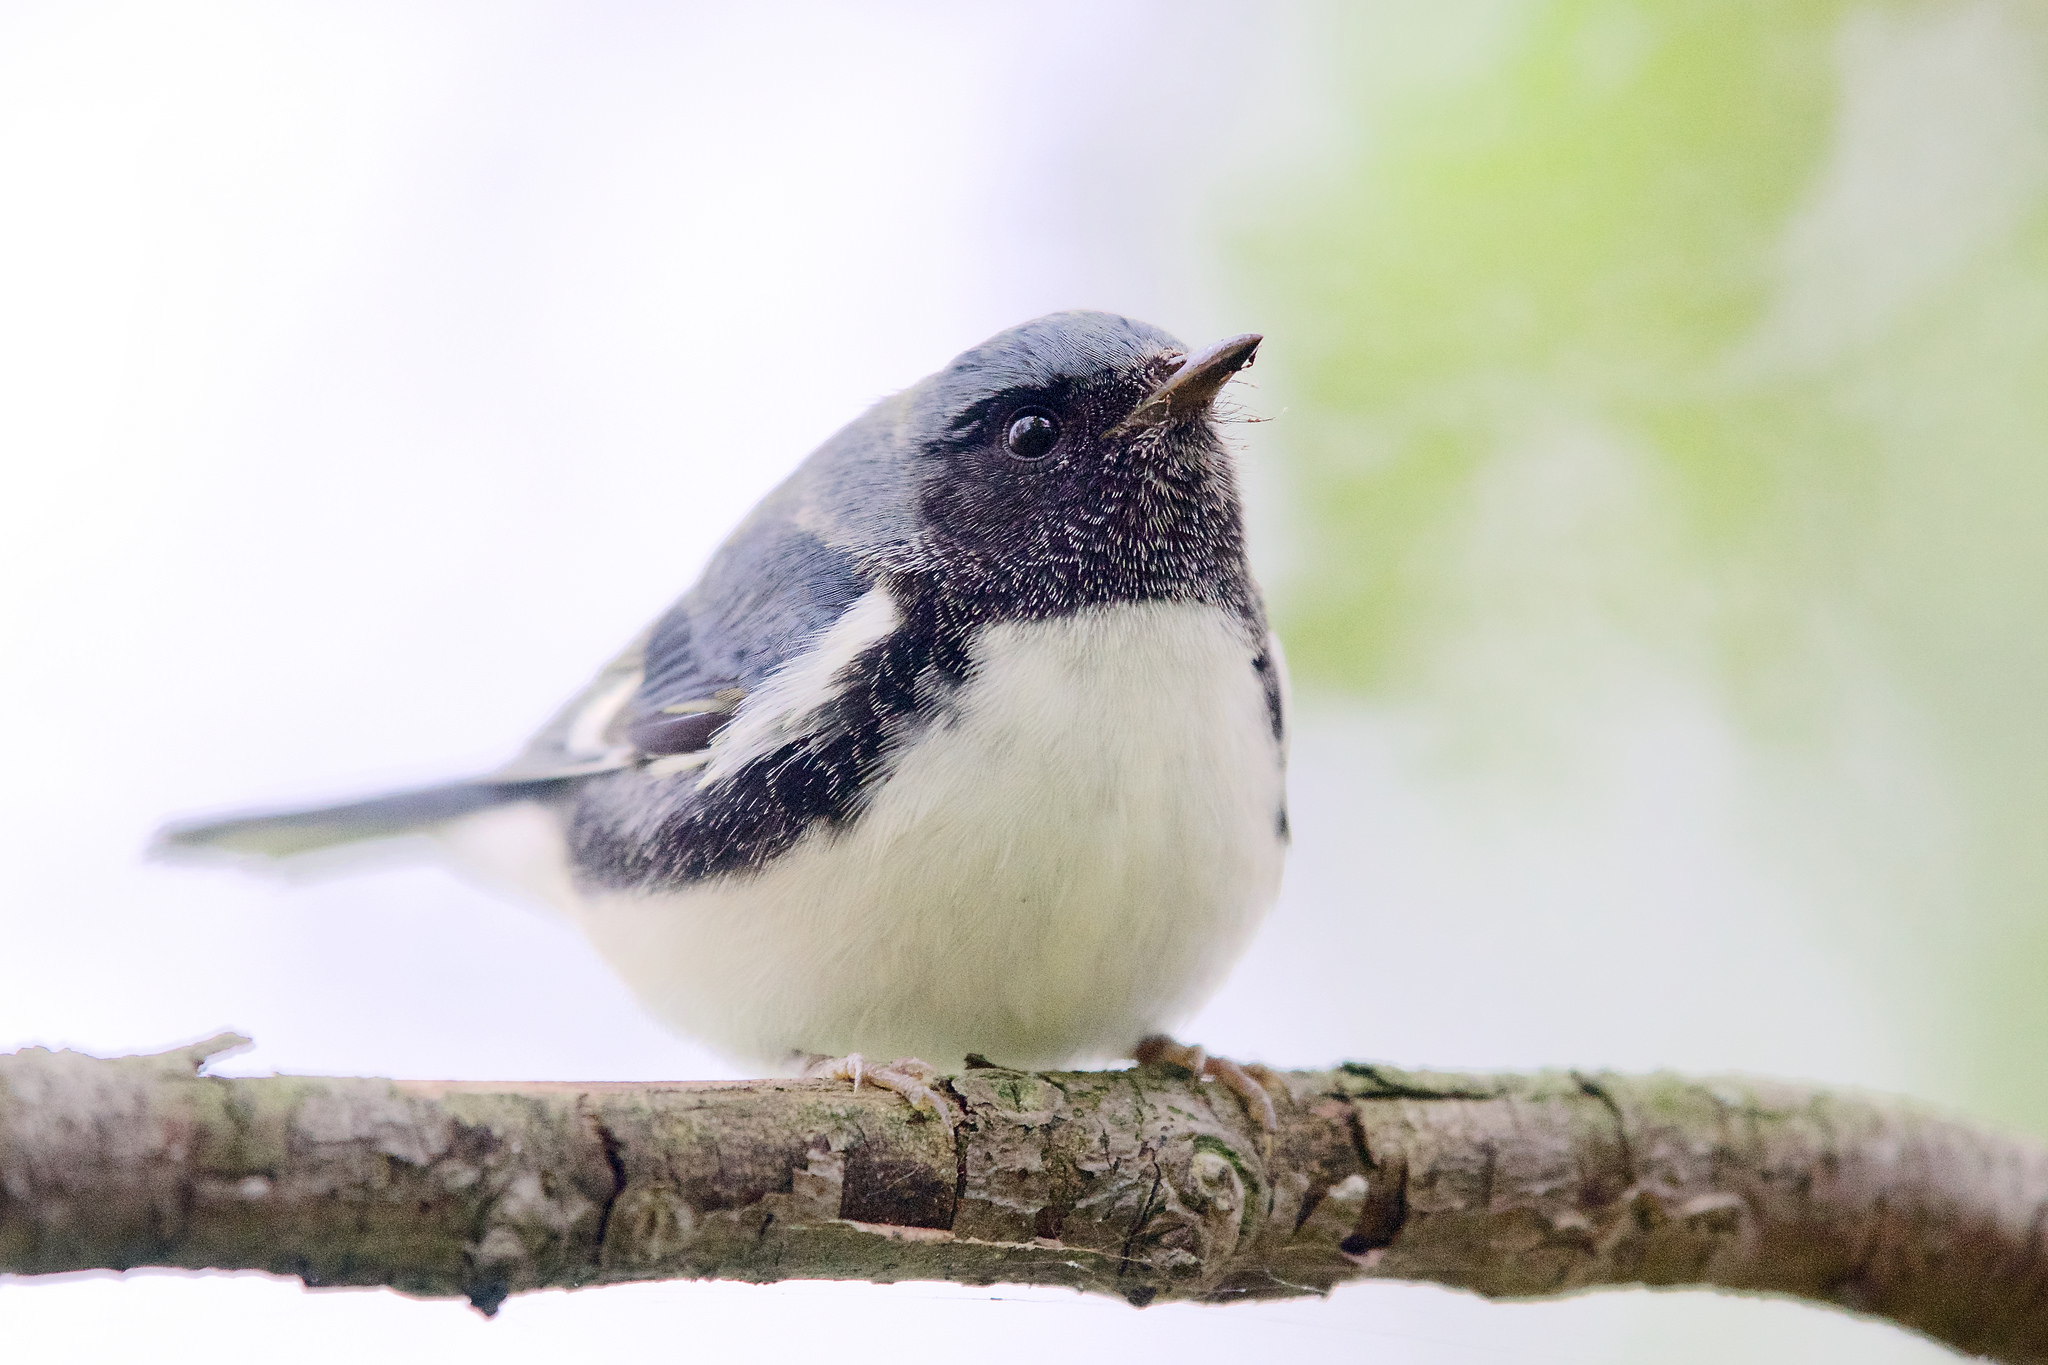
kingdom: Animalia
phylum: Chordata
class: Aves
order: Passeriformes
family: Parulidae
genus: Setophaga
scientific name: Setophaga caerulescens
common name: Black-throated blue warbler
